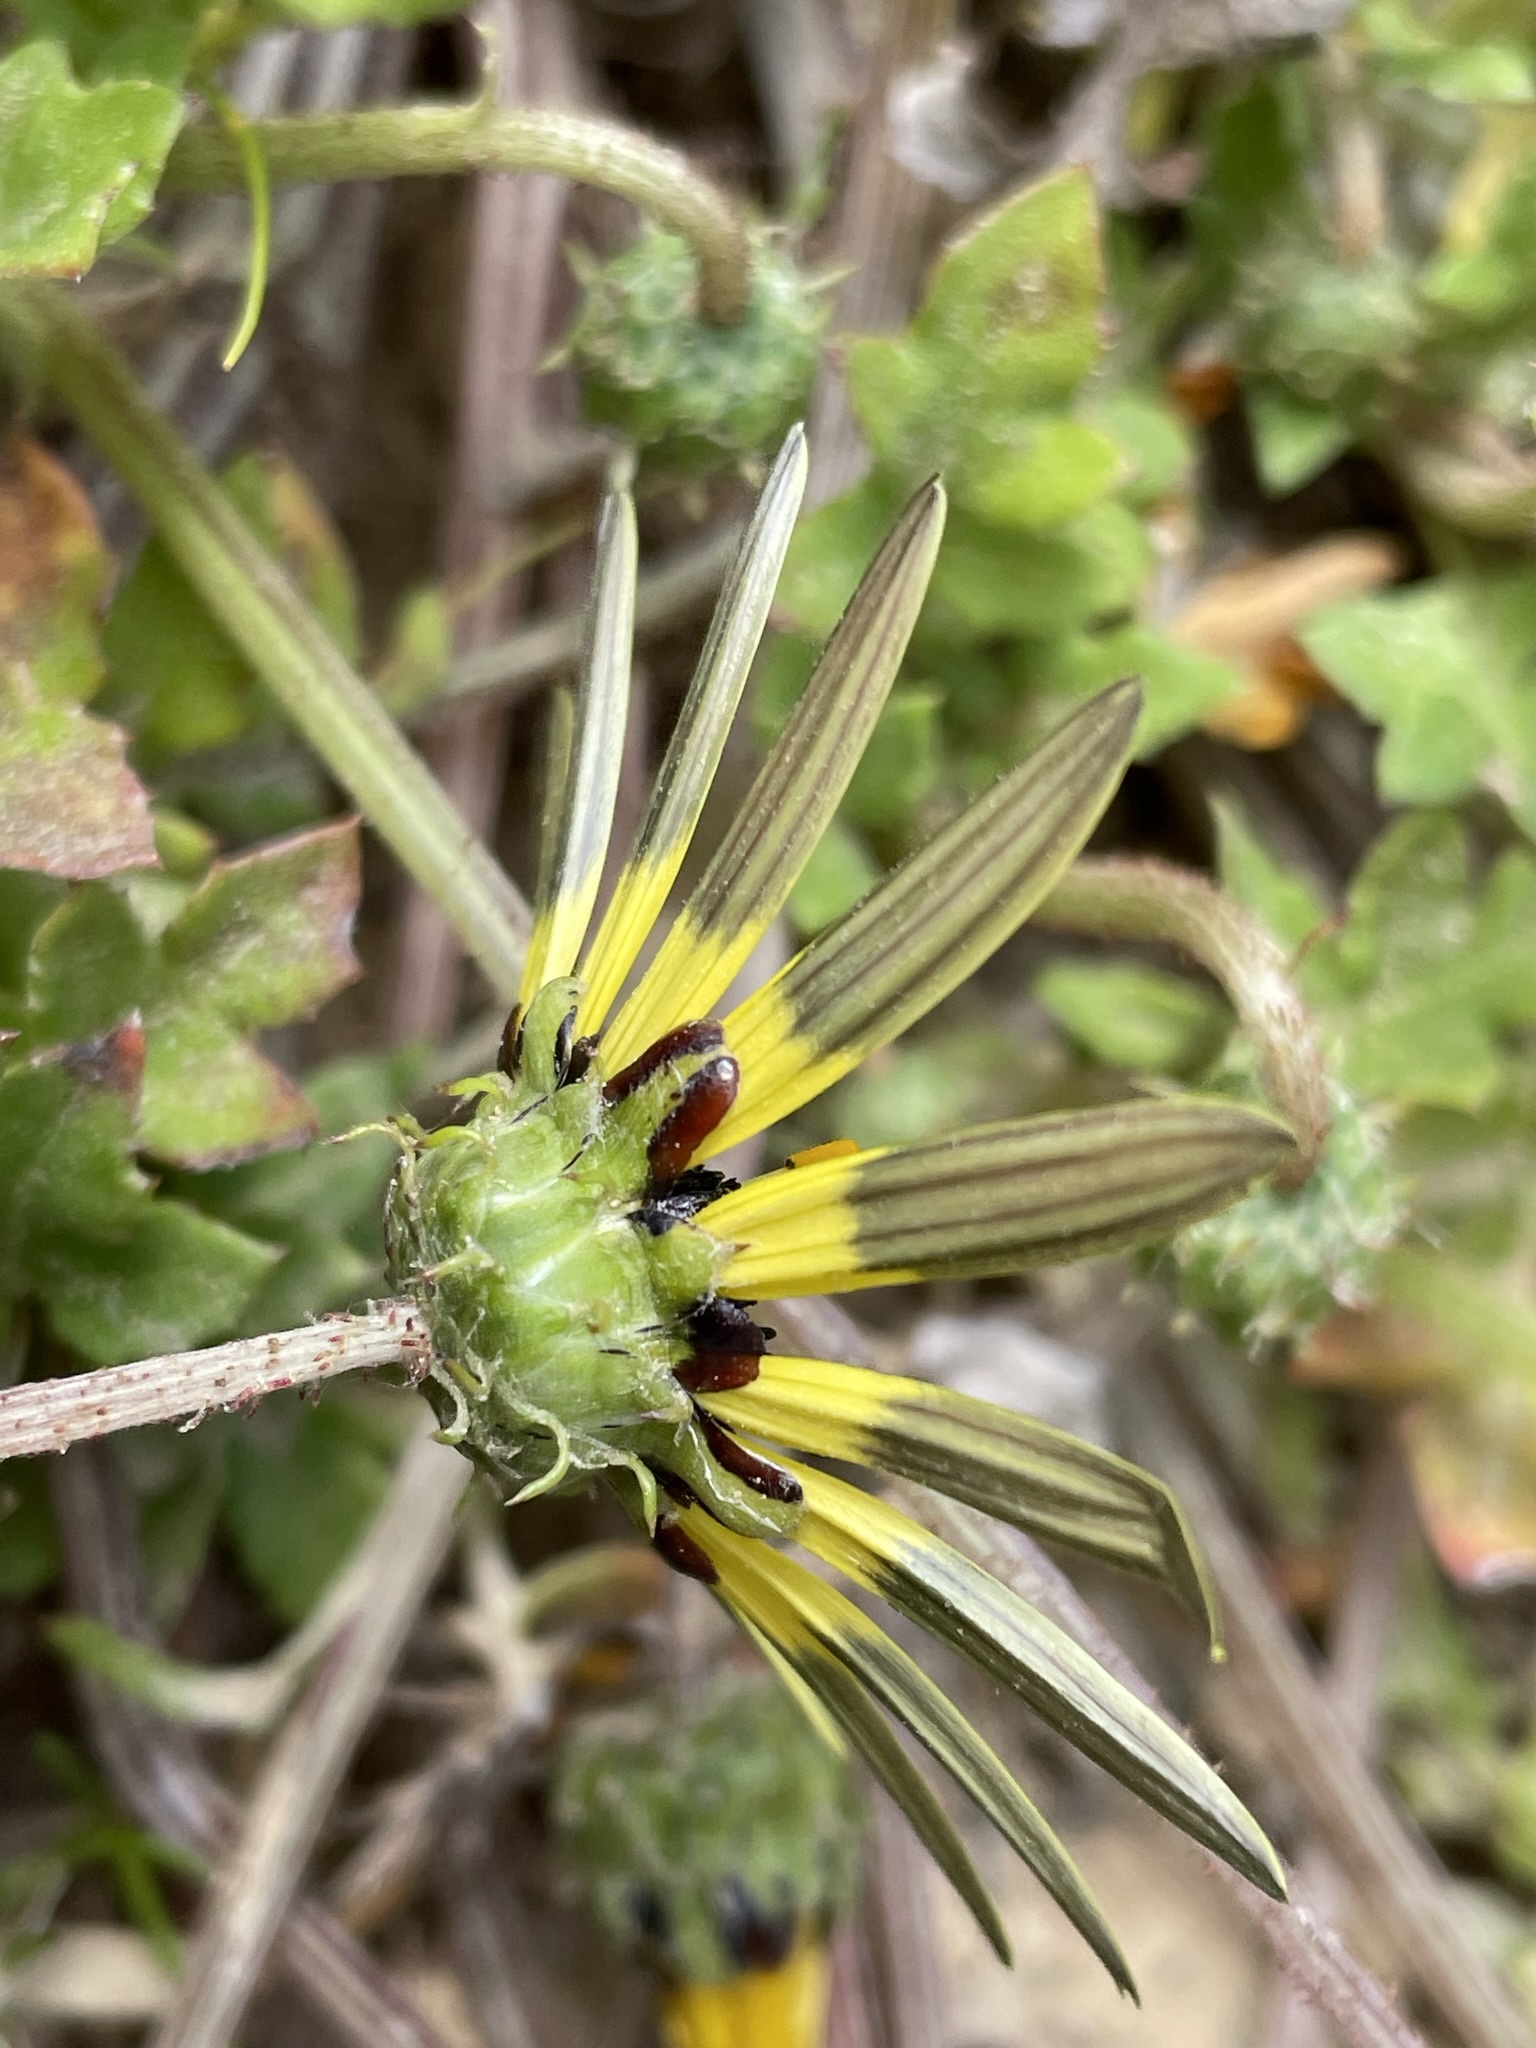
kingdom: Plantae
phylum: Tracheophyta
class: Magnoliopsida
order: Asterales
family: Asteraceae
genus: Arctotheca
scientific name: Arctotheca calendula
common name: Capeweed
